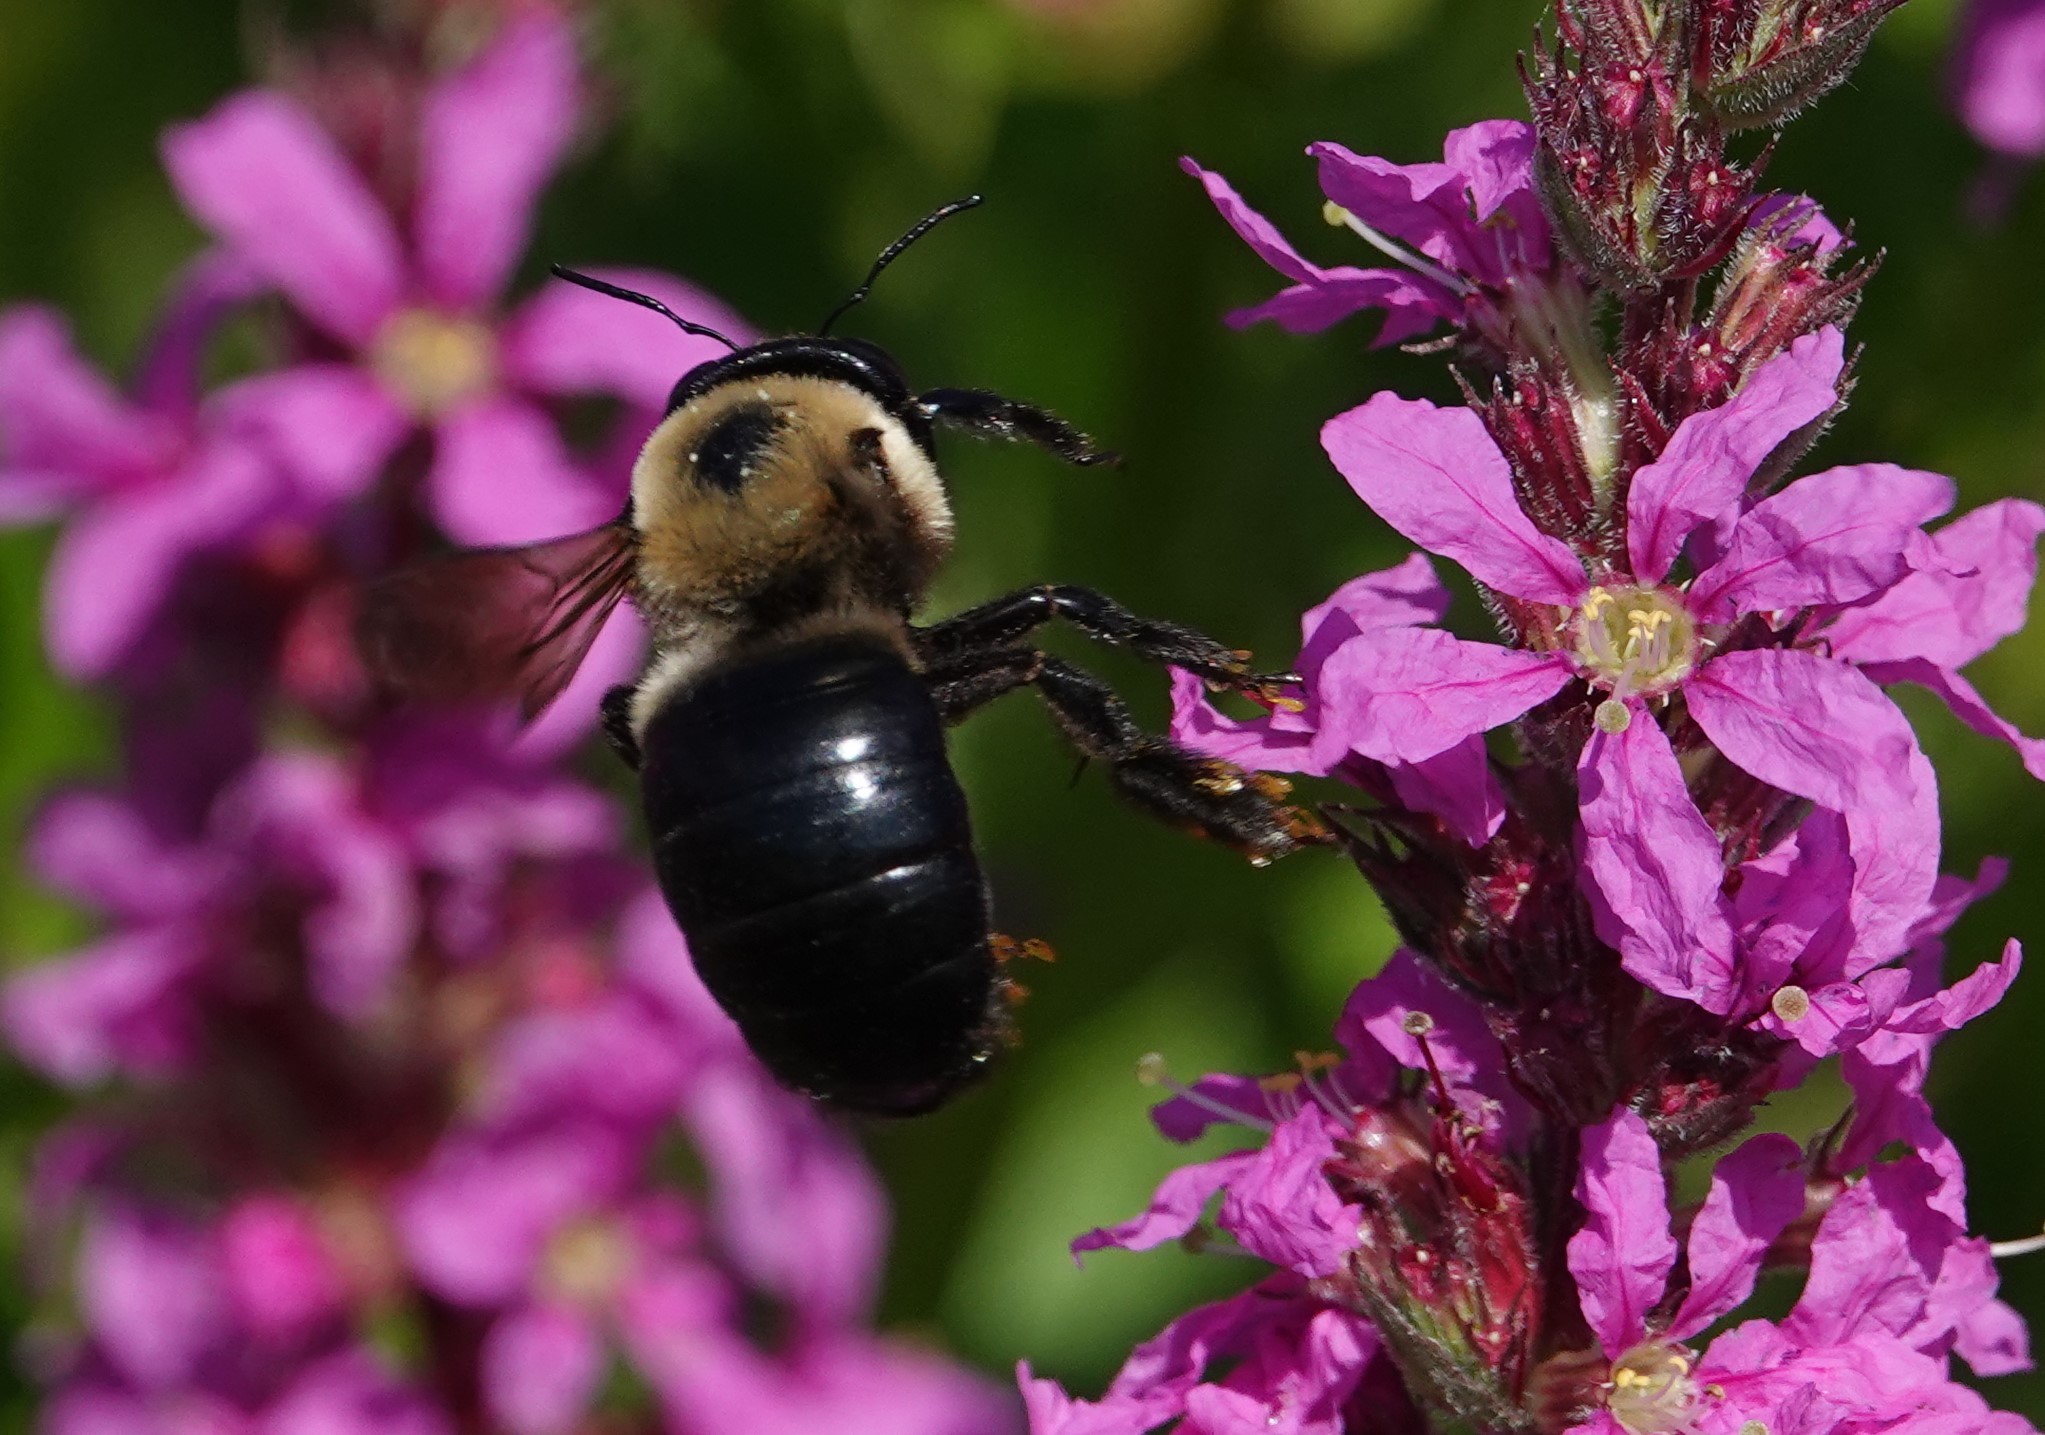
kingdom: Animalia
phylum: Arthropoda
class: Insecta
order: Hymenoptera
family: Apidae
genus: Xylocopa
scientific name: Xylocopa virginica
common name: Carpenter bee
